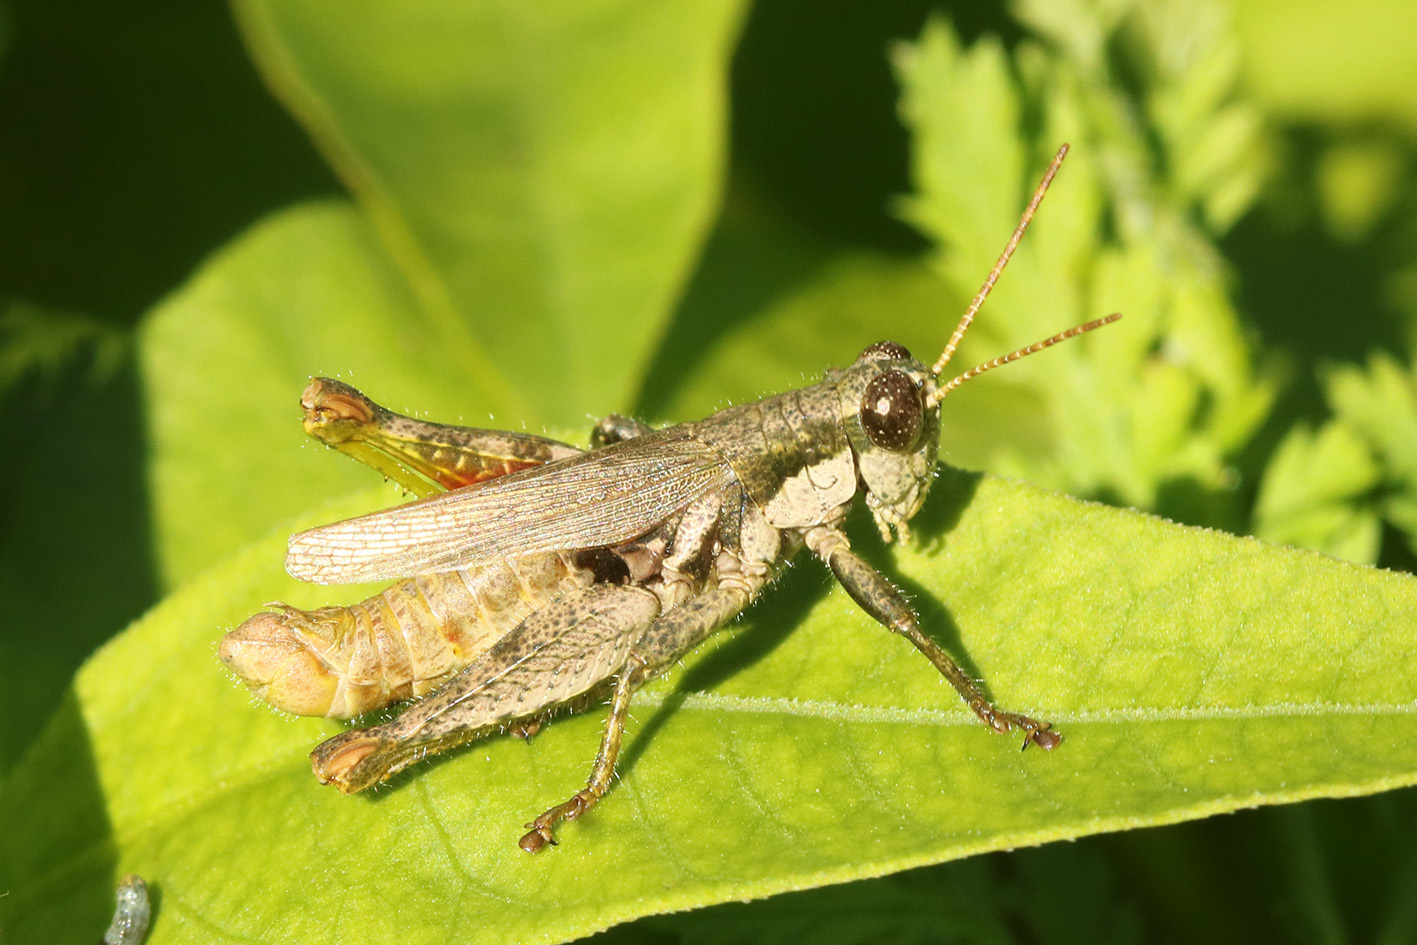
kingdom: Animalia
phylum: Arthropoda
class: Insecta
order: Orthoptera
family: Acrididae
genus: Ronderosia
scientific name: Ronderosia bergii
